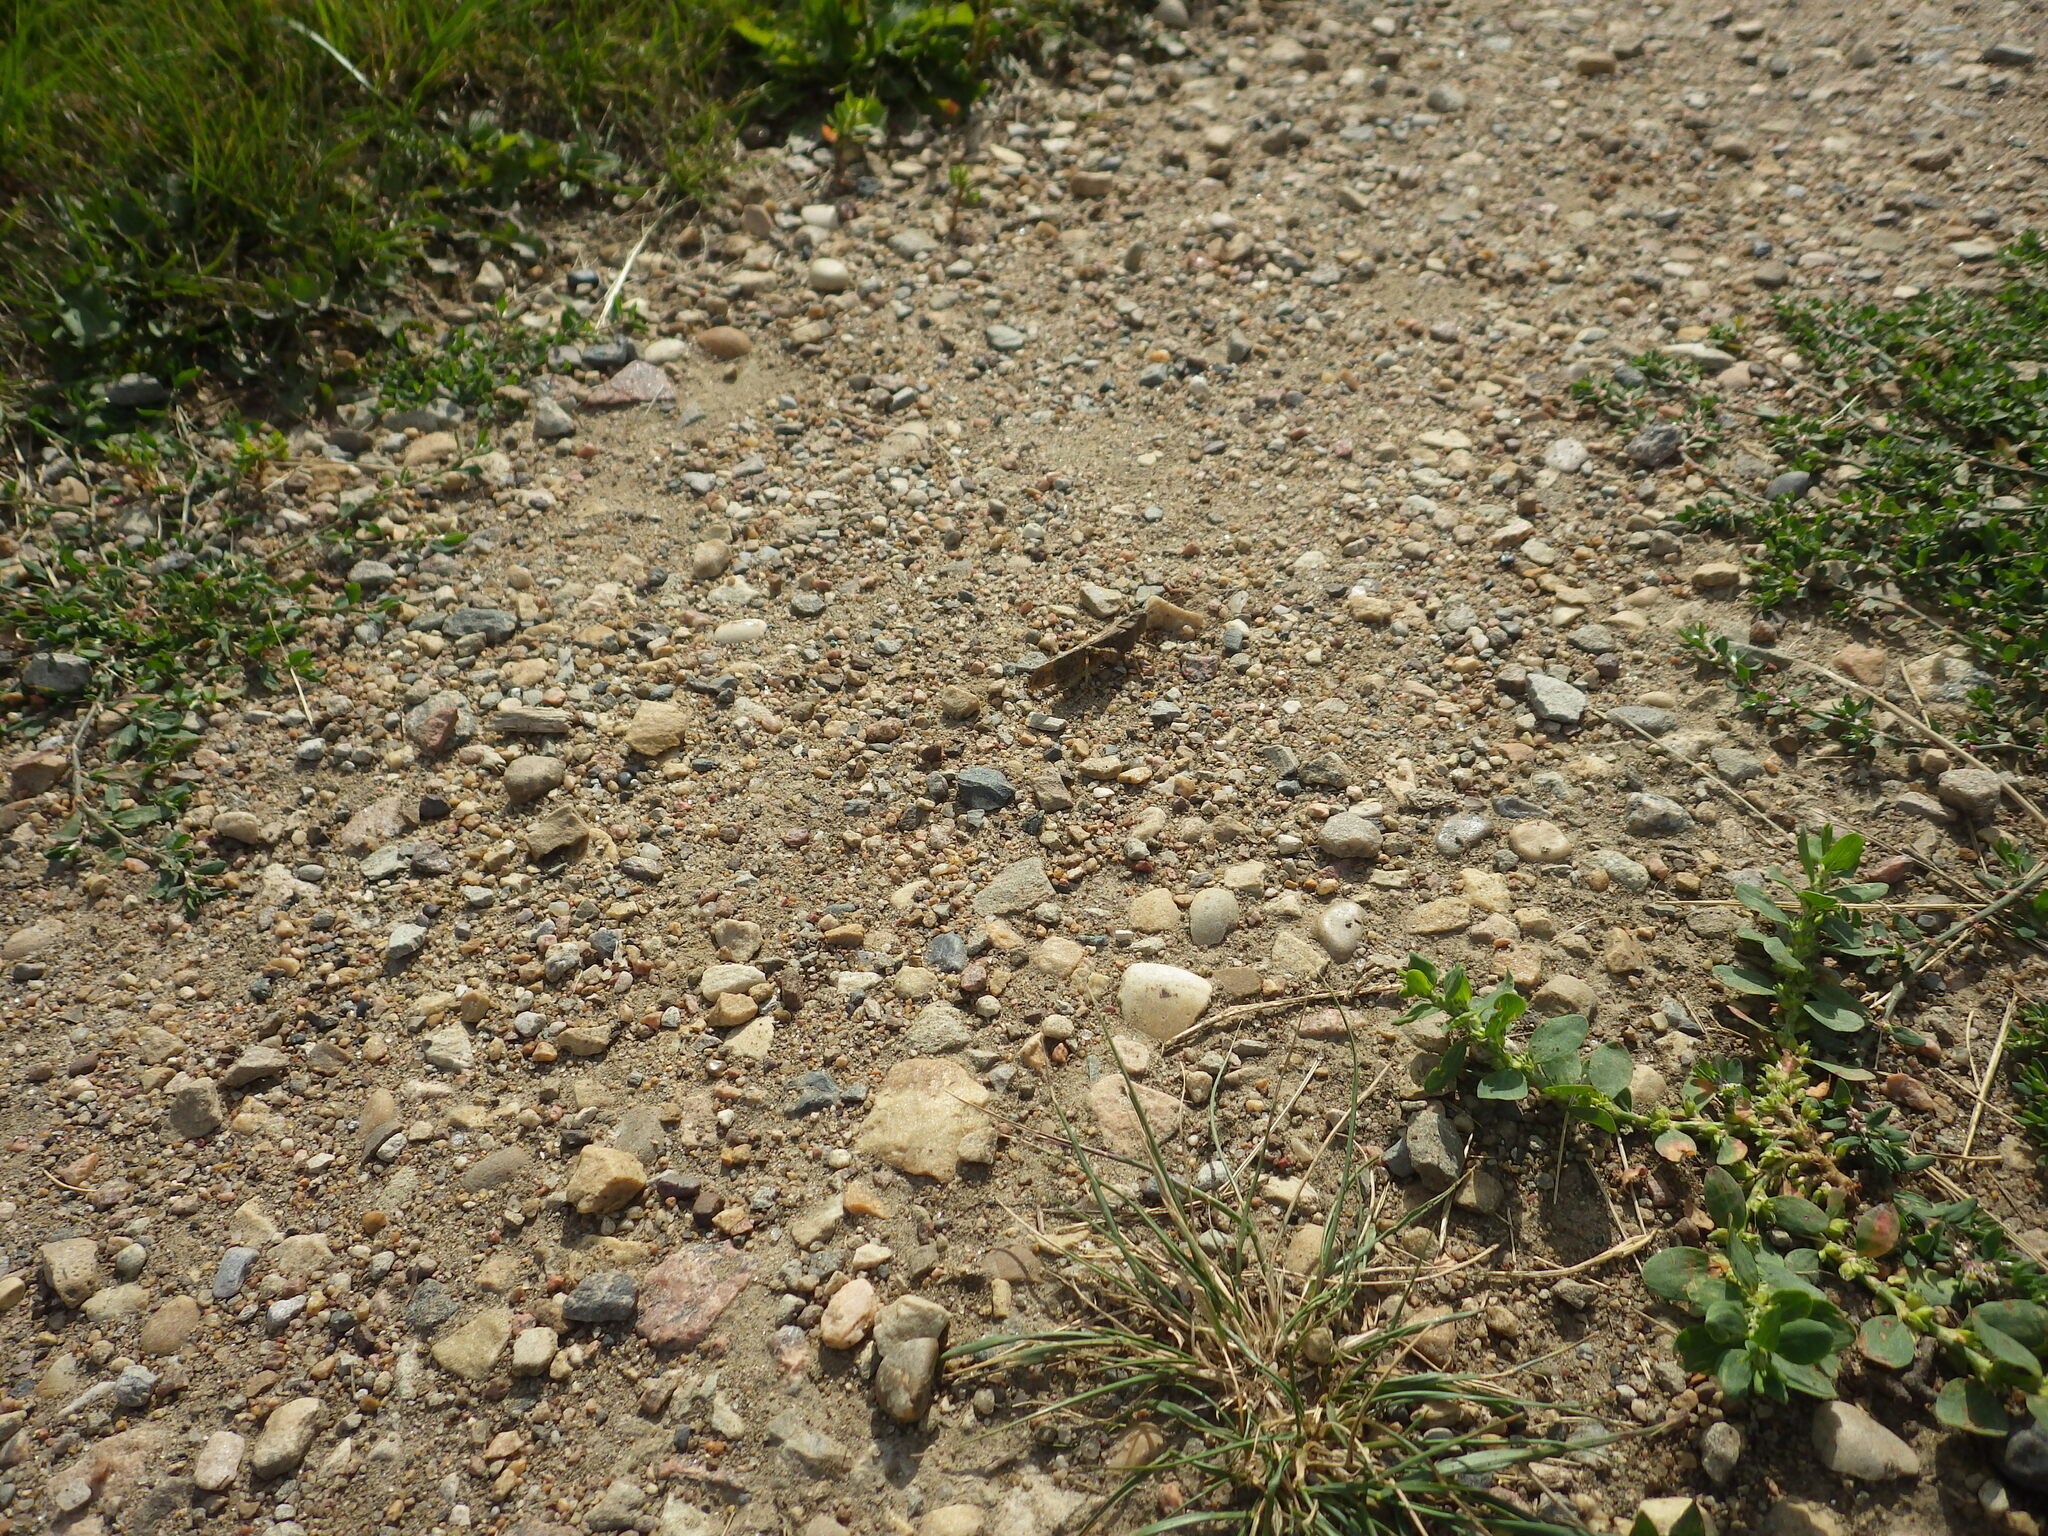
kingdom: Animalia
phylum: Arthropoda
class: Insecta
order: Orthoptera
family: Acrididae
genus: Dissosteira
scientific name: Dissosteira carolina
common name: Carolina grasshopper
